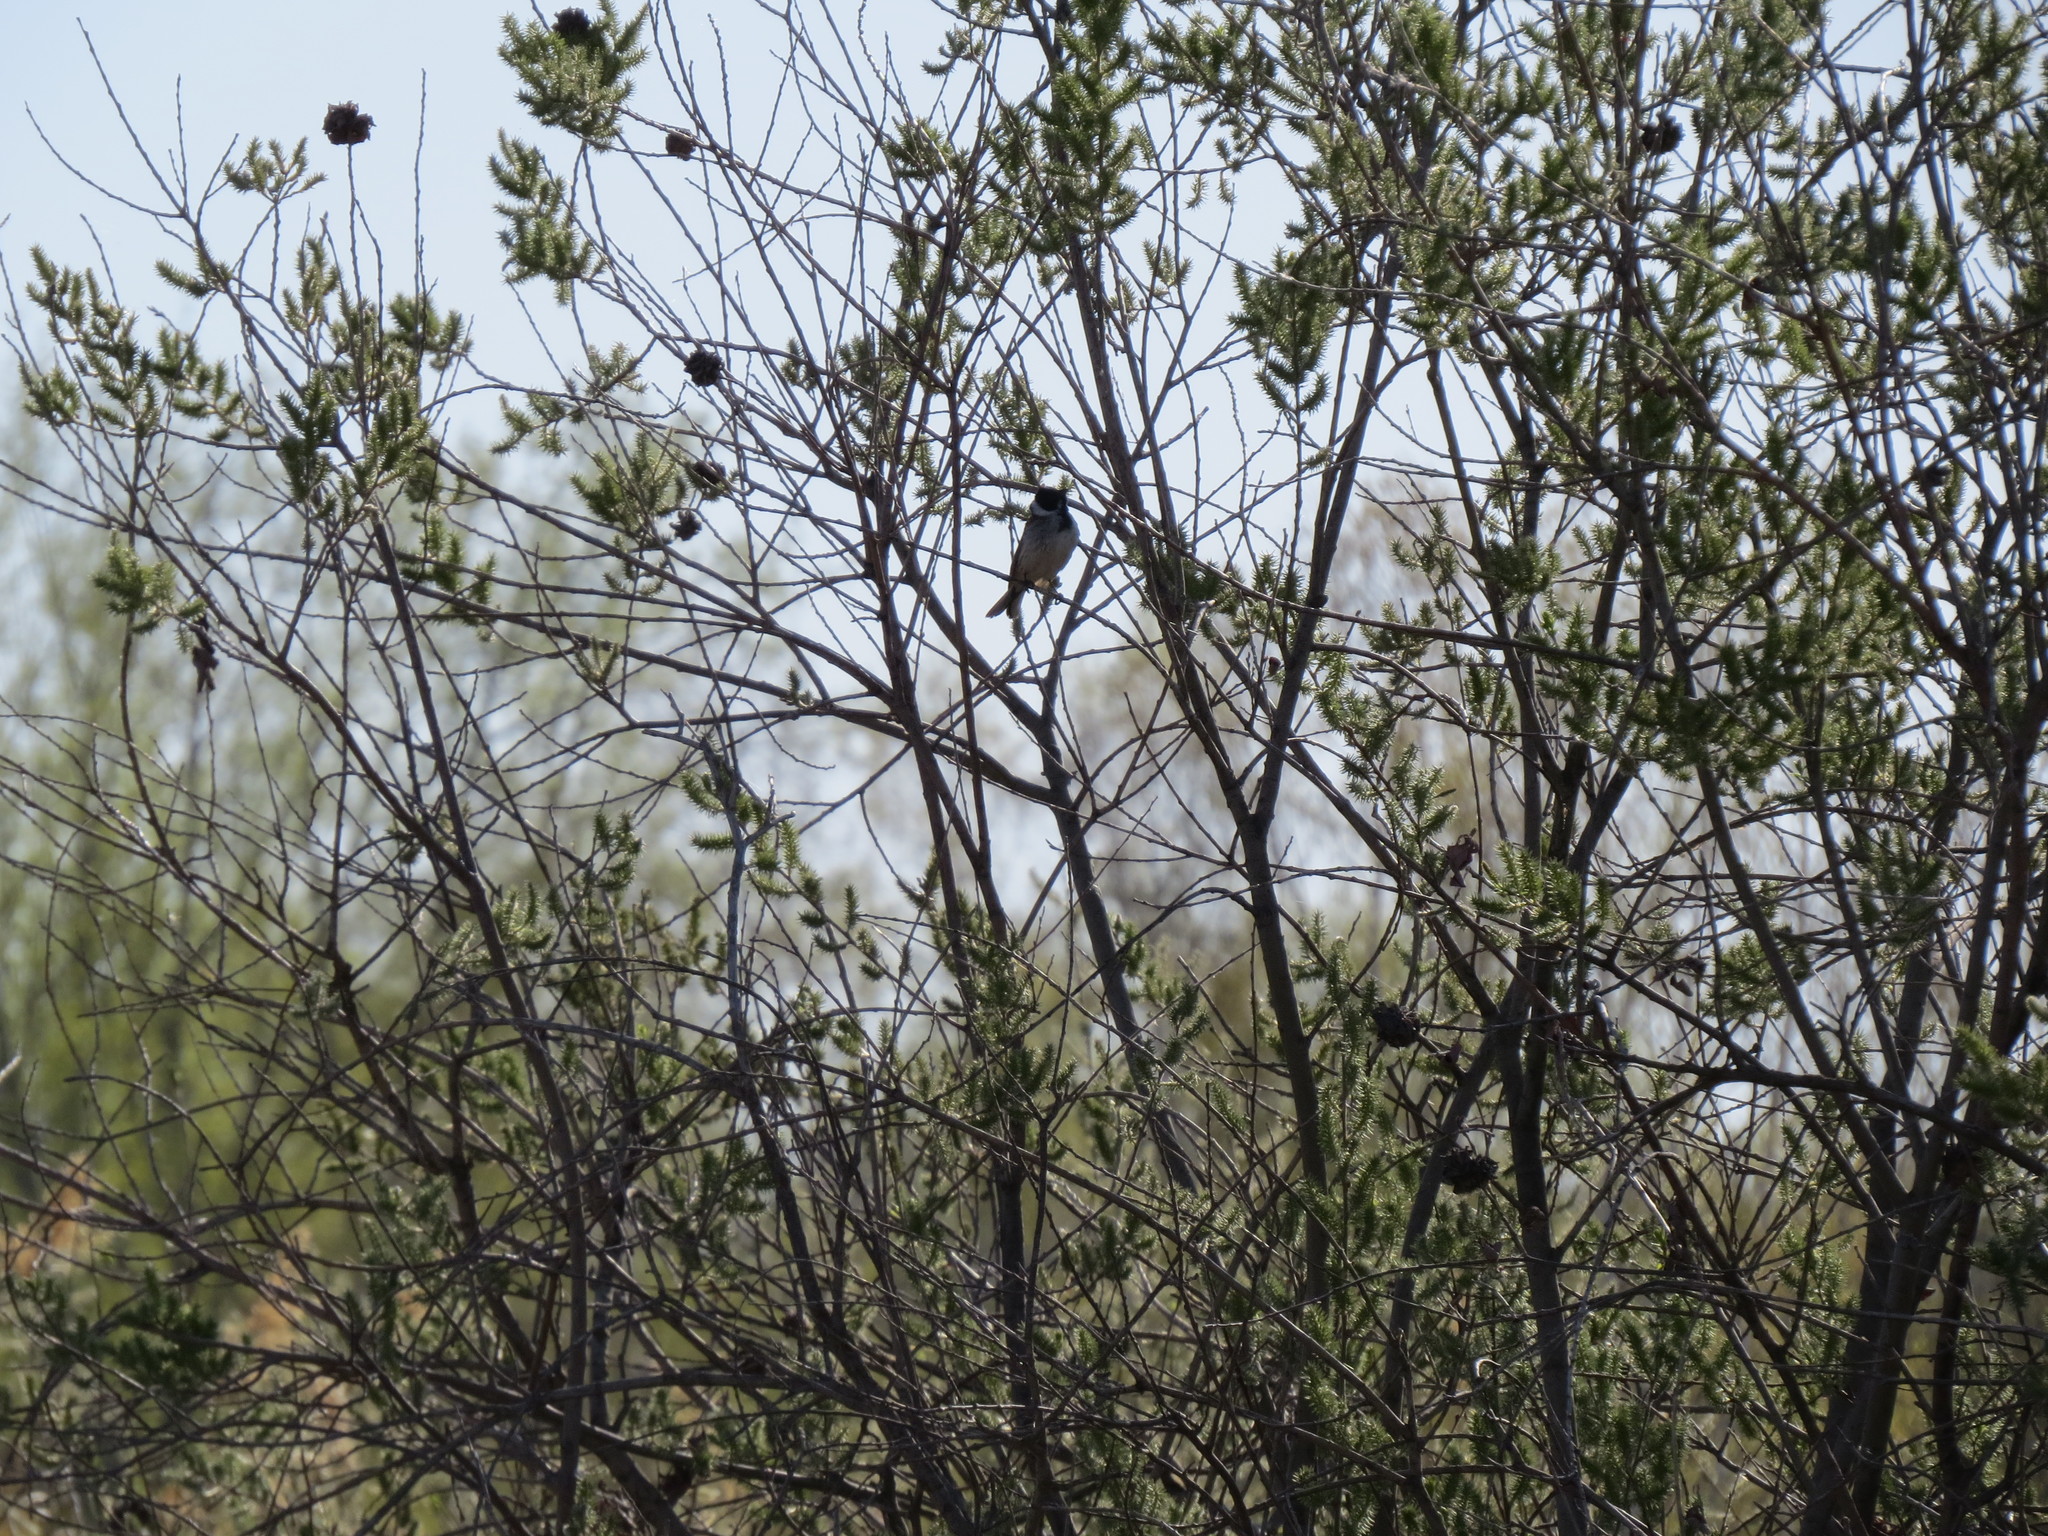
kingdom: Animalia
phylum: Chordata
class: Aves
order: Passeriformes
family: Emberizidae
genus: Emberiza
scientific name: Emberiza schoeniclus
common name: Reed bunting
